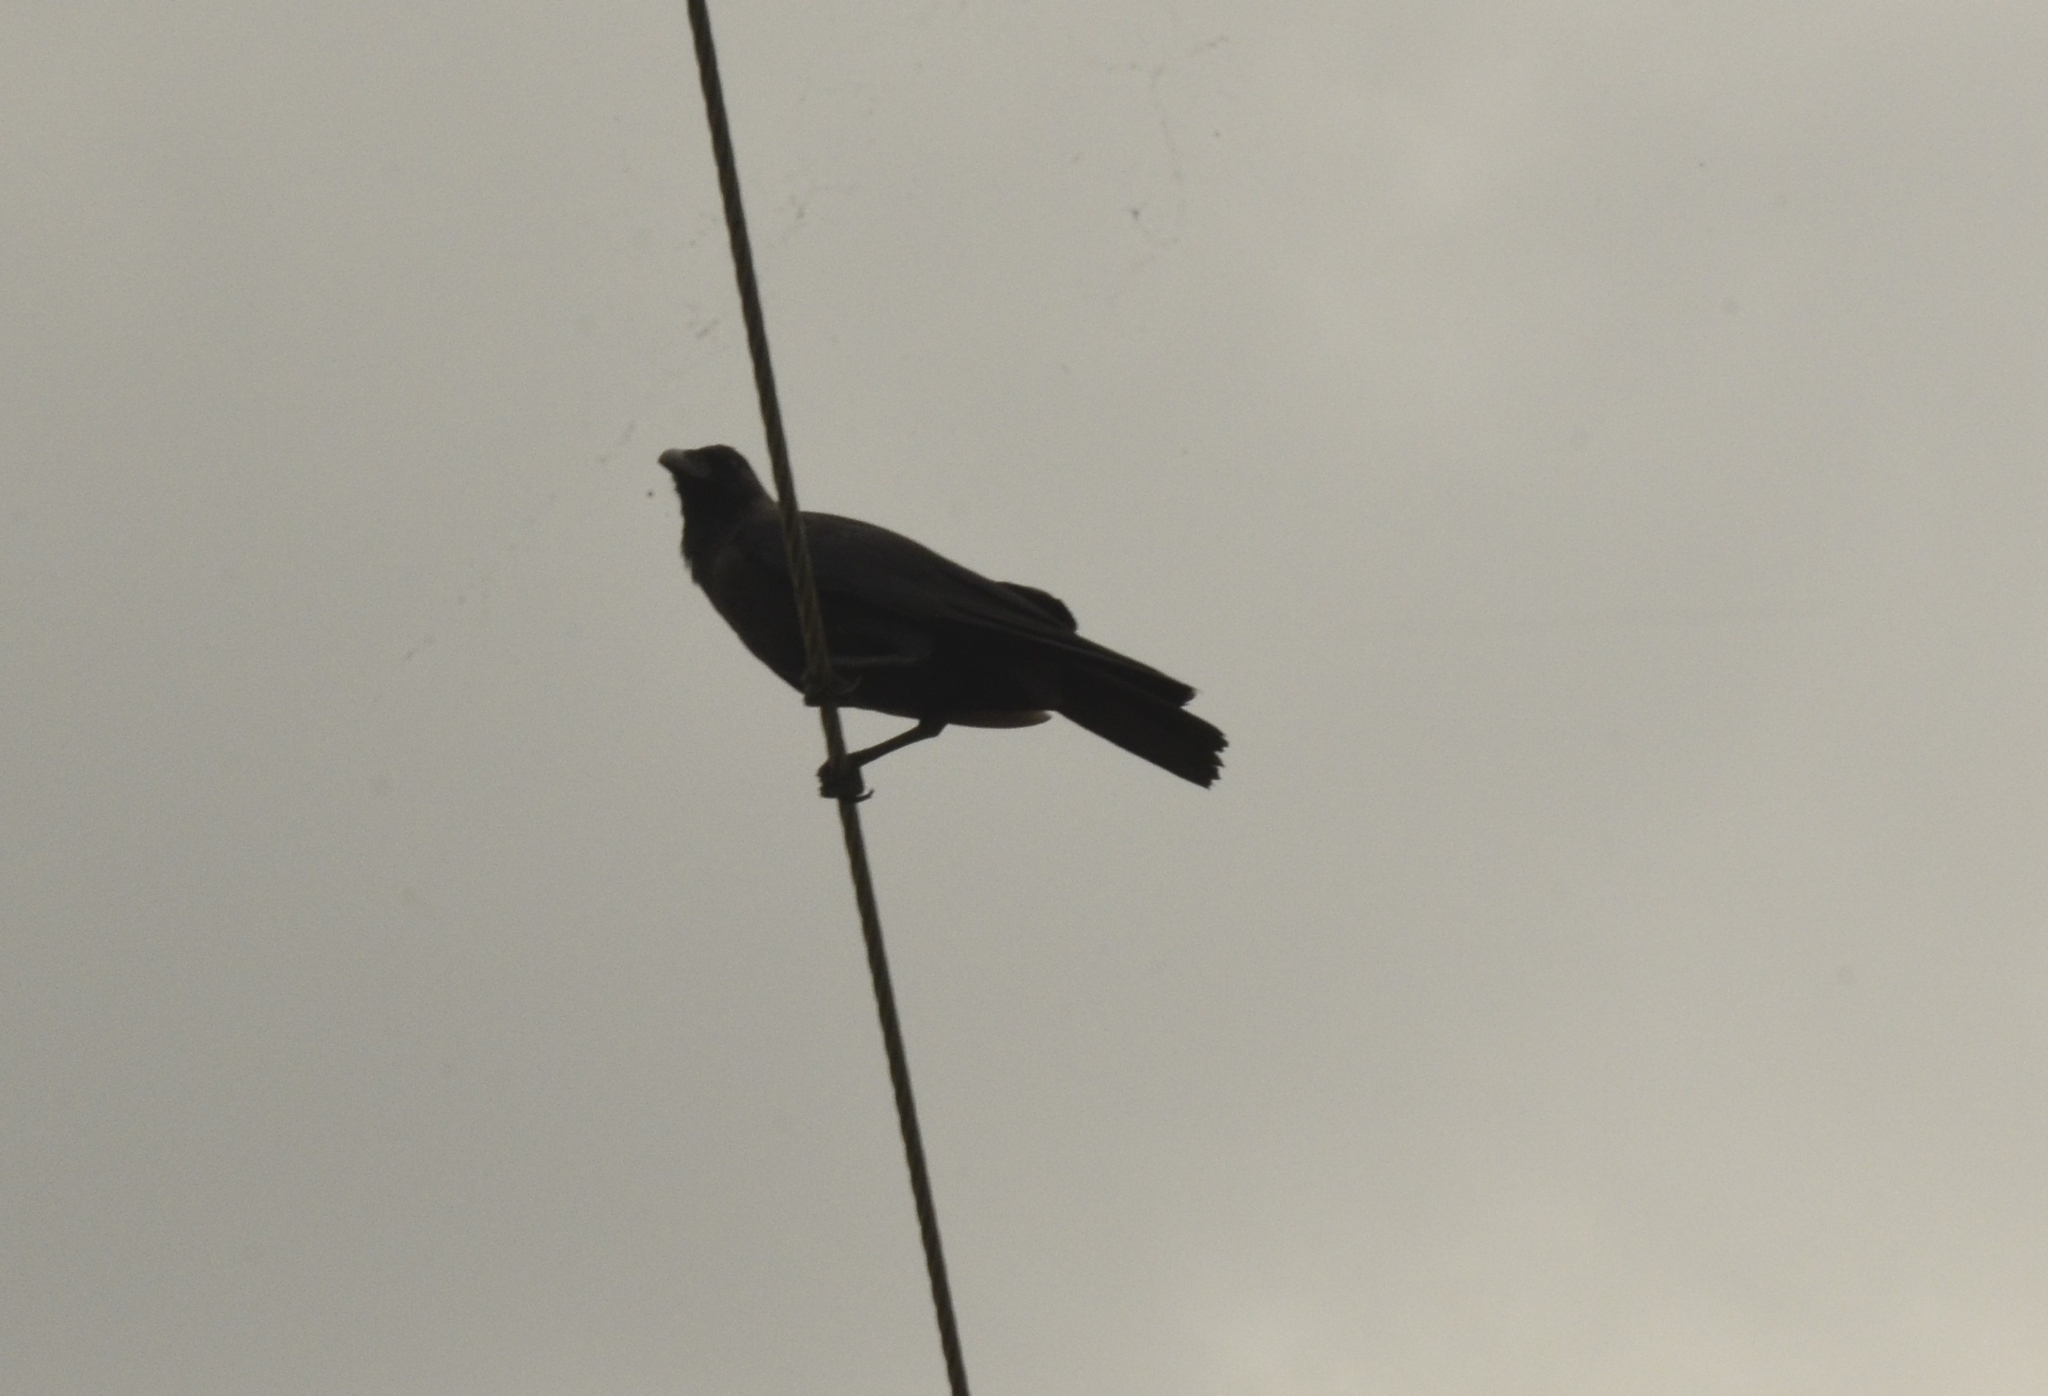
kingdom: Animalia
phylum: Chordata
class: Aves
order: Passeriformes
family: Corvidae
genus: Corvus
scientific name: Corvus splendens
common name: House crow
